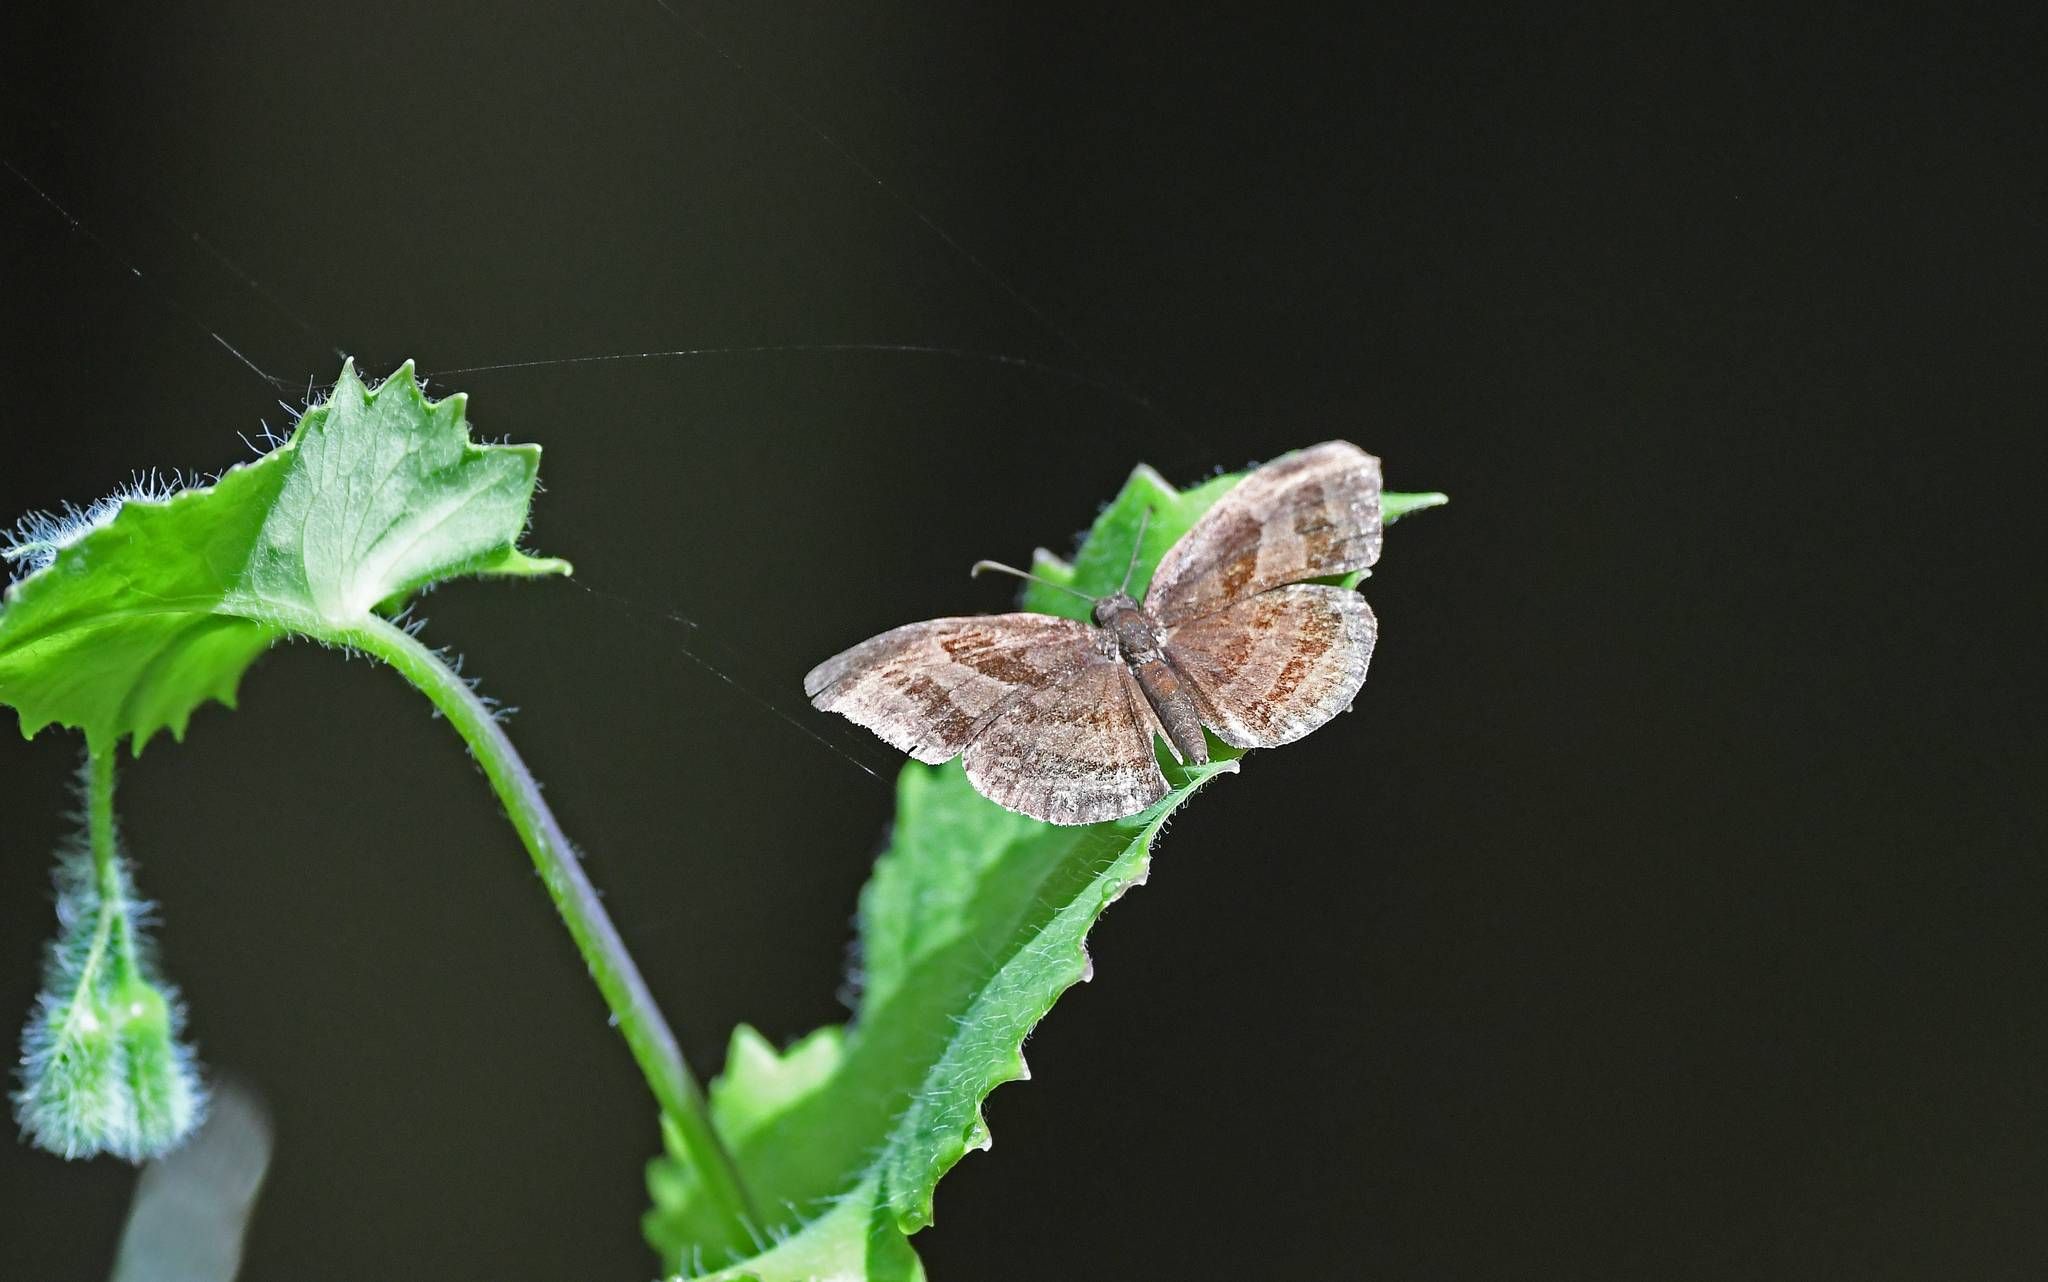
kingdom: Animalia
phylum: Arthropoda
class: Insecta
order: Lepidoptera
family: Hesperiidae
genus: Trina
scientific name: Trina geometrina
